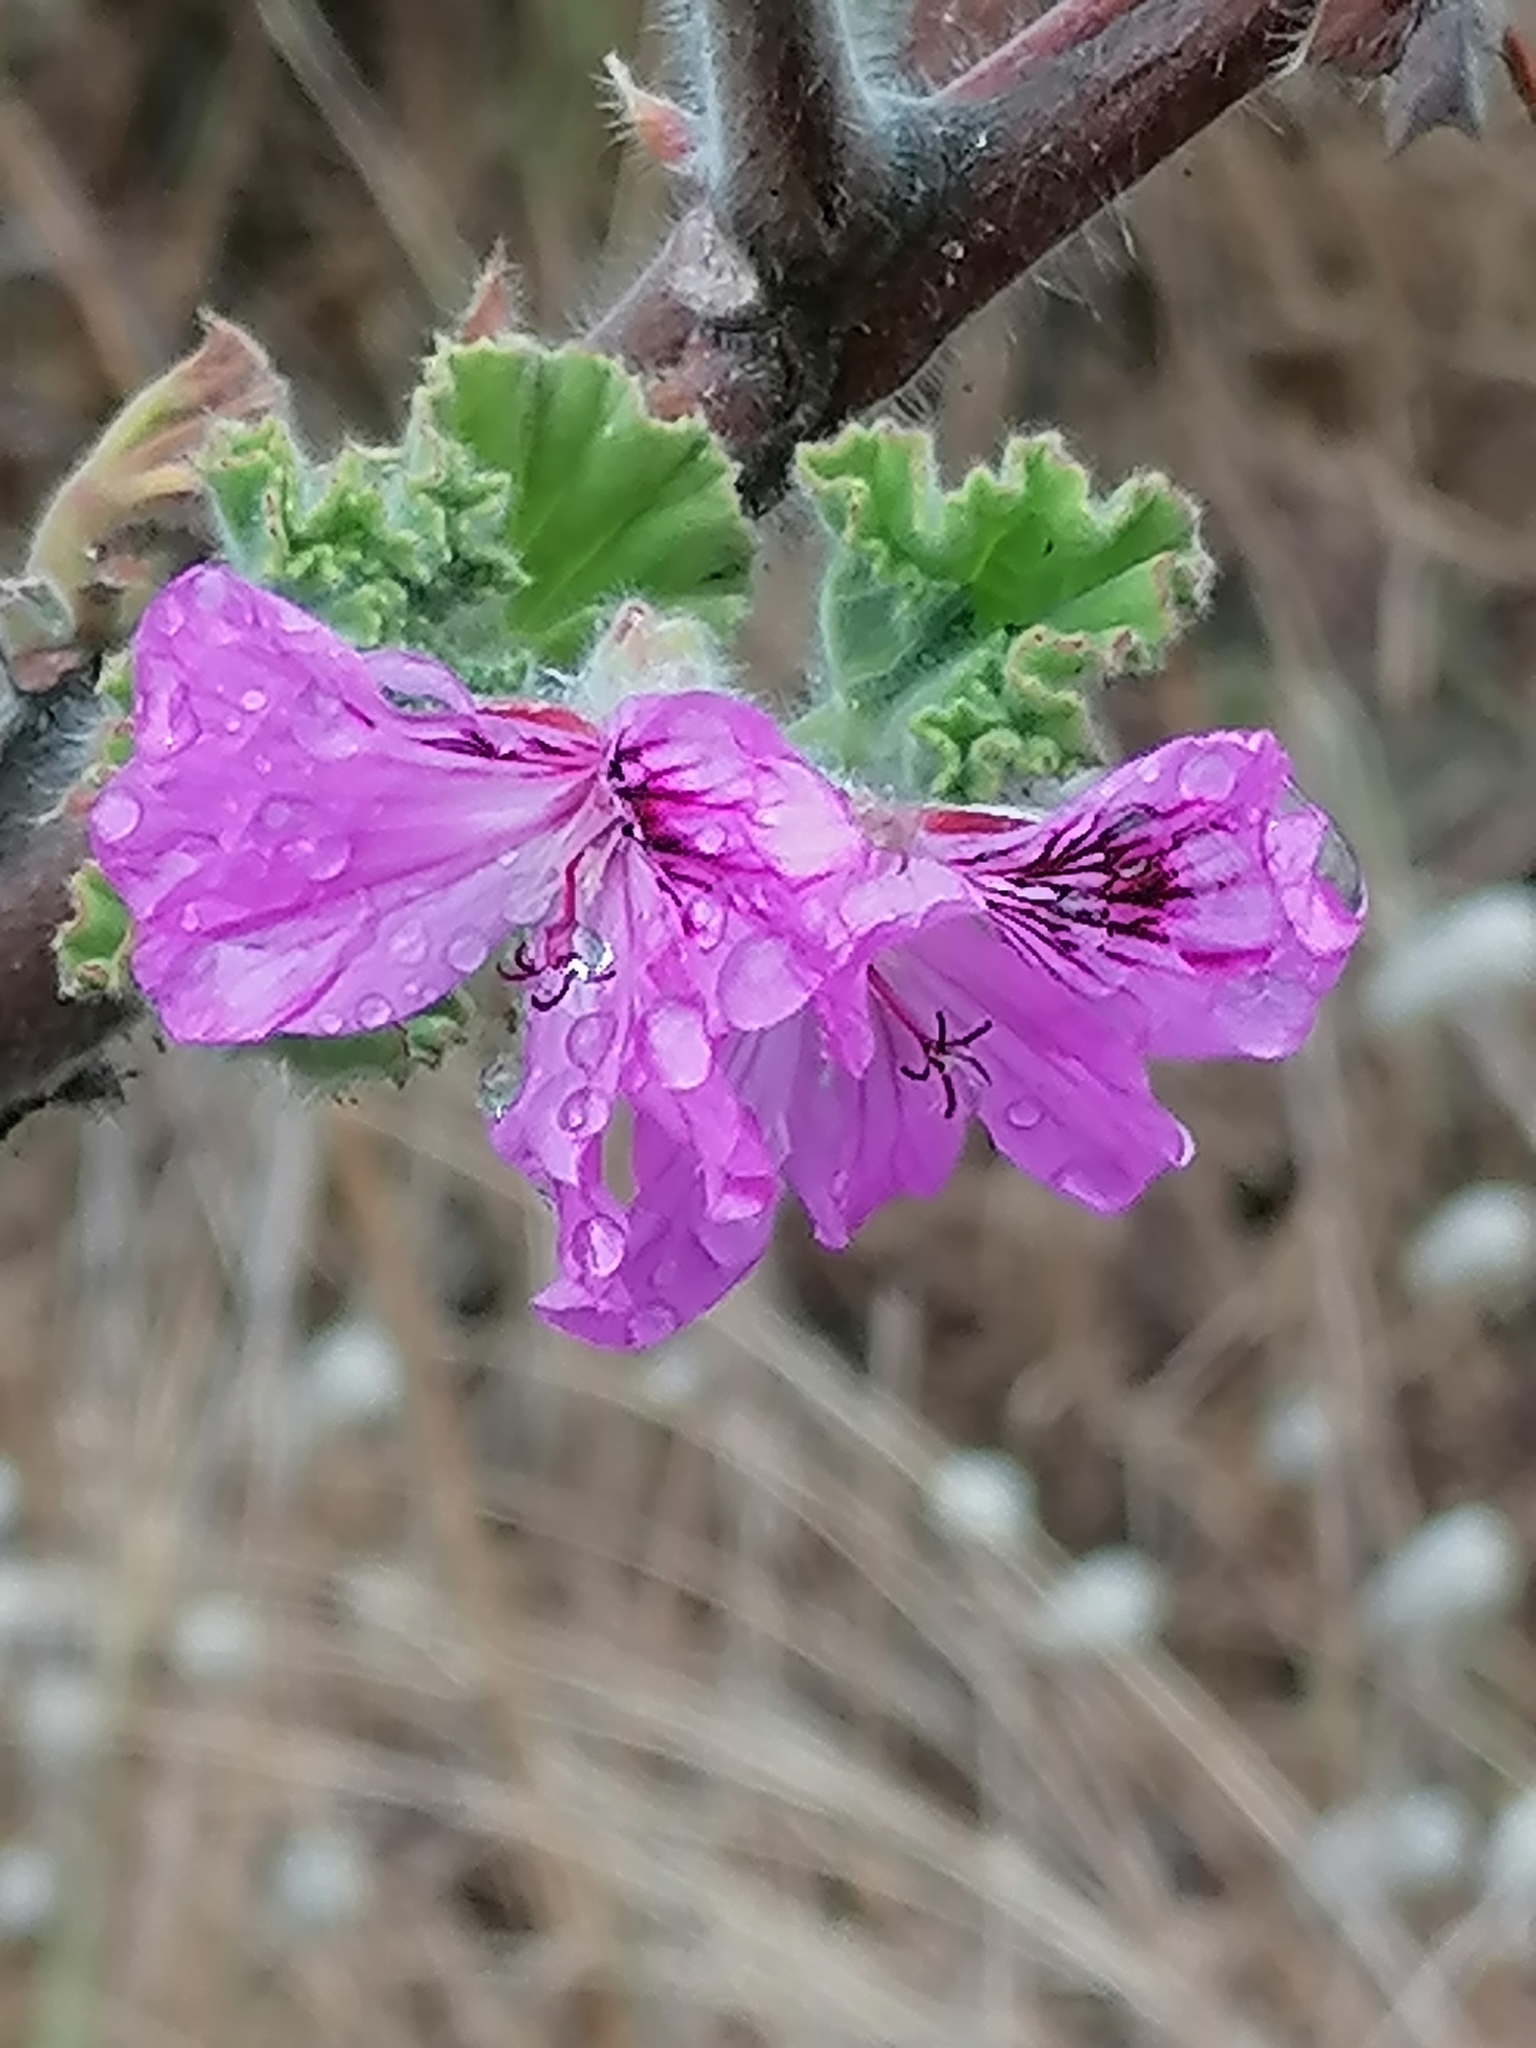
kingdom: Plantae
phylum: Tracheophyta
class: Magnoliopsida
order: Geraniales
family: Geraniaceae
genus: Pelargonium
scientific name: Pelargonium cucullatum
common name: Tree pelargonium
